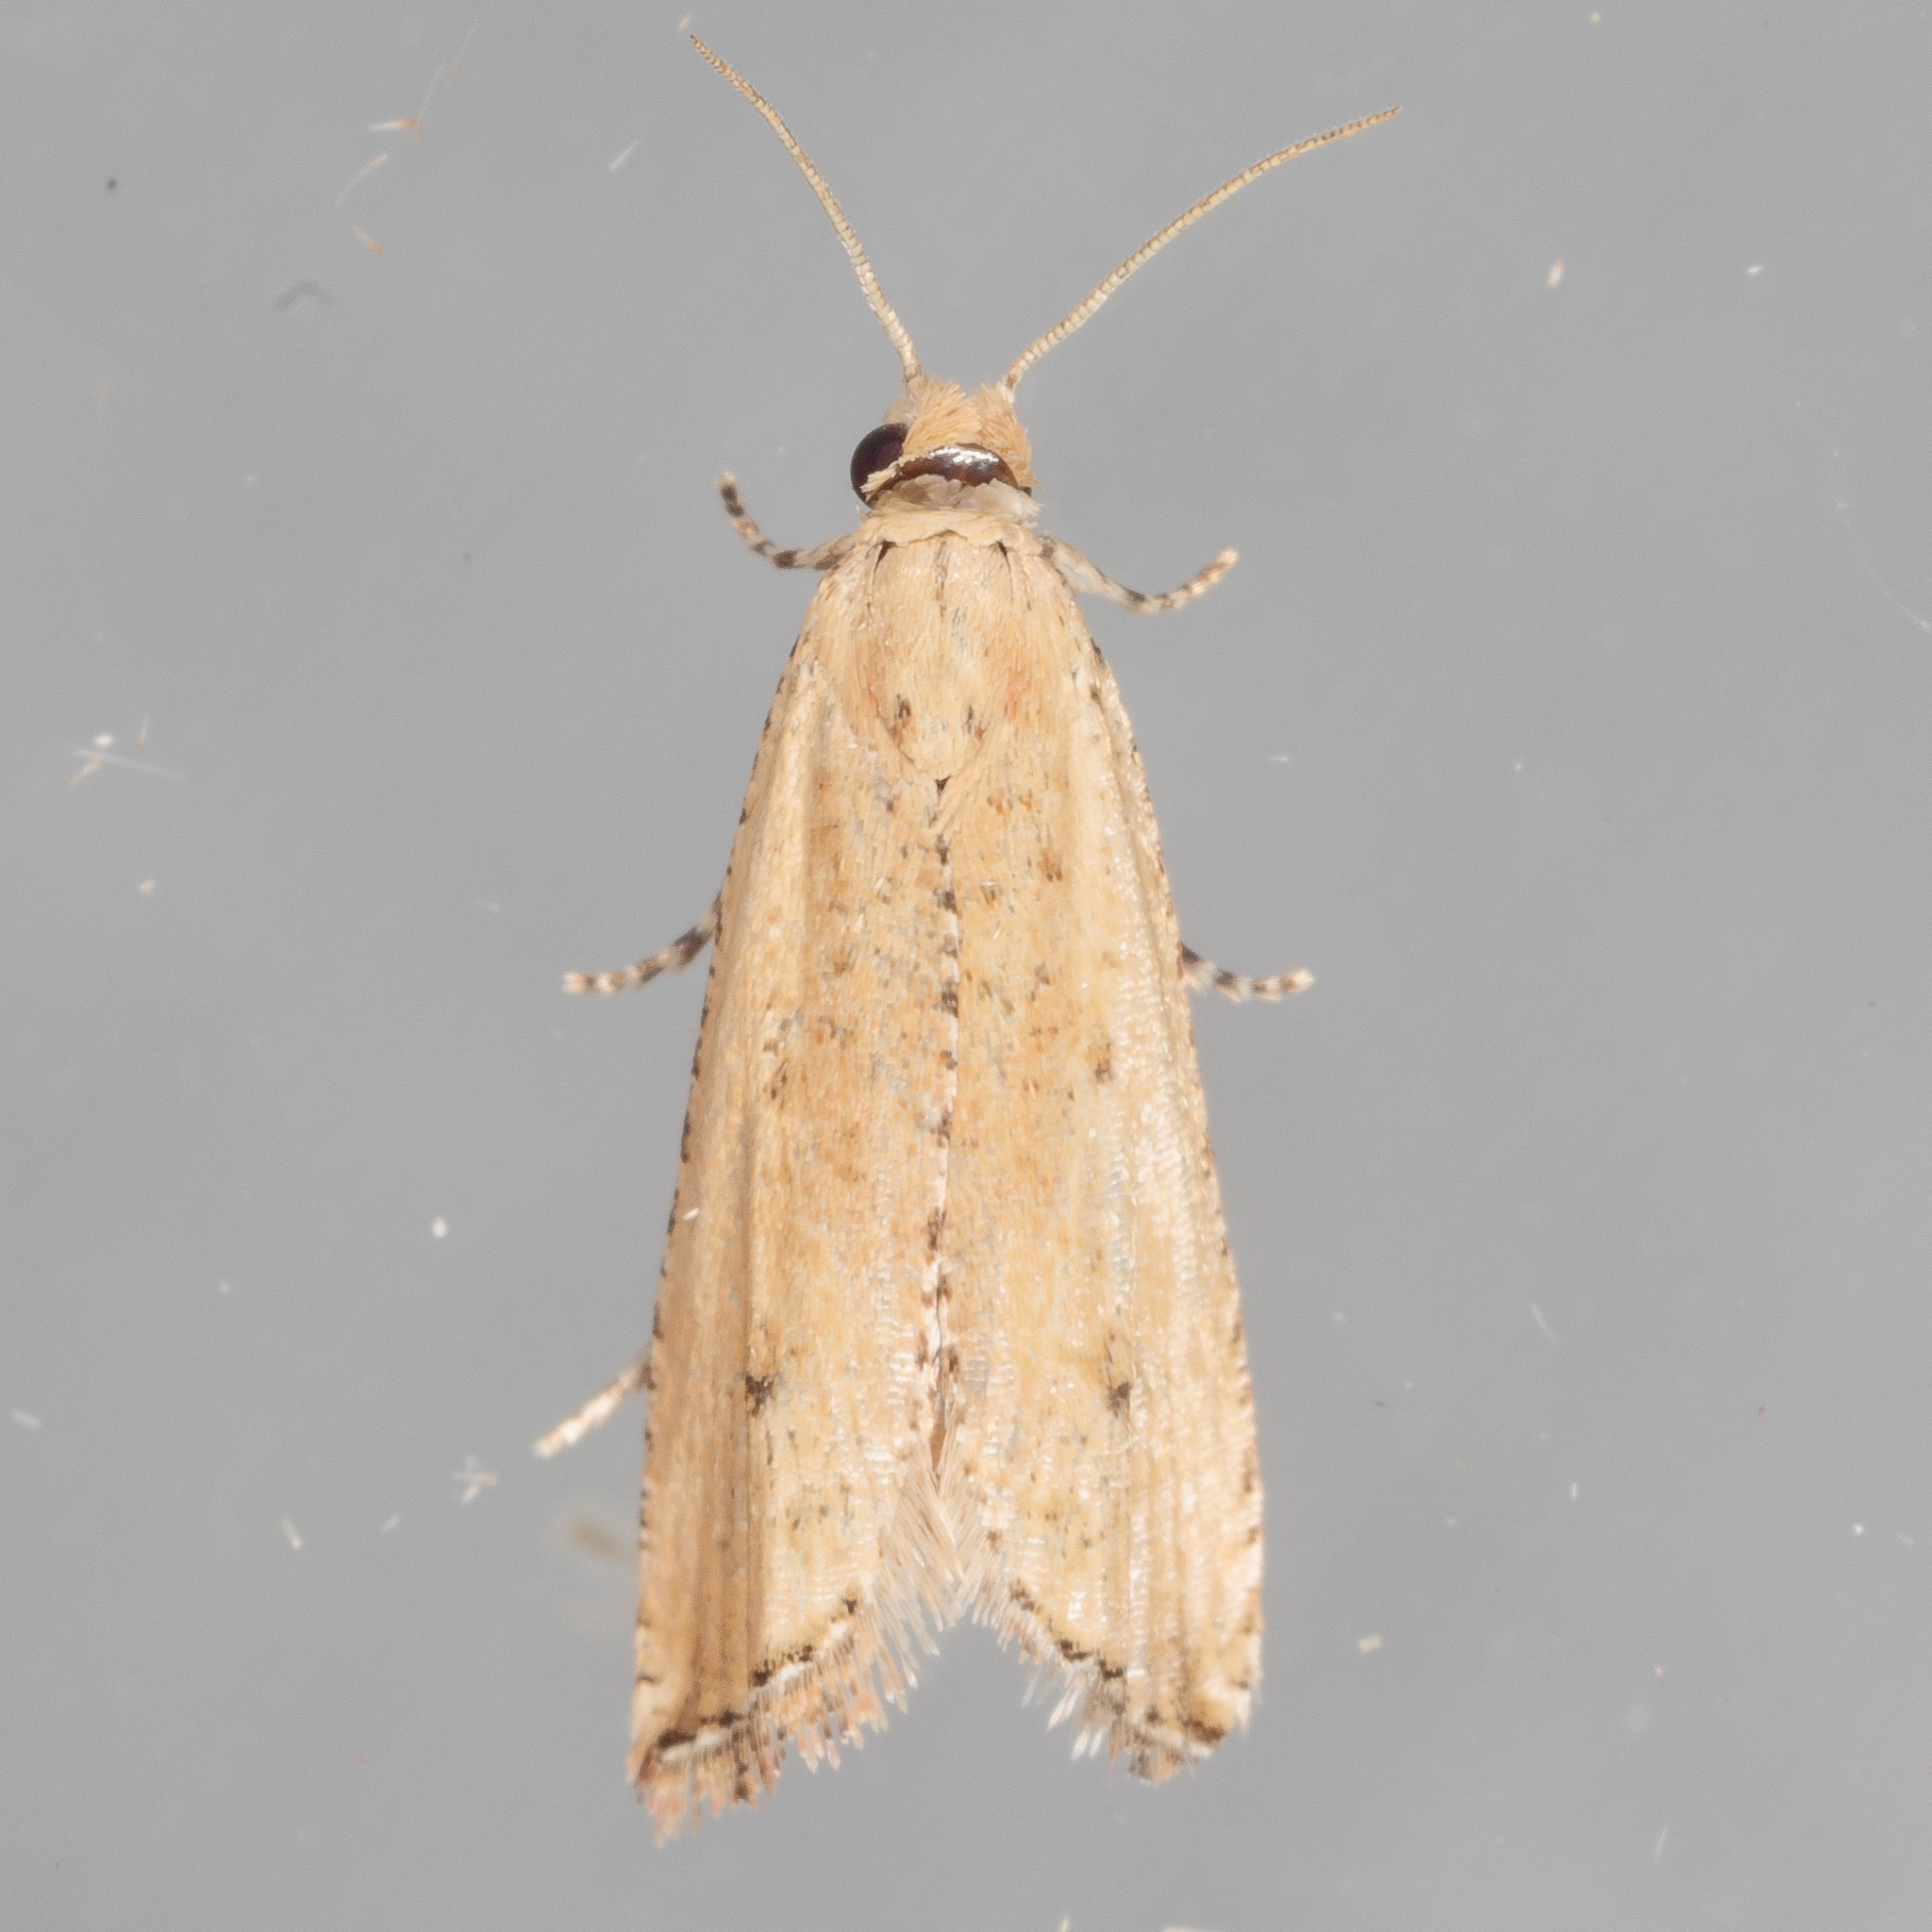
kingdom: Animalia
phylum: Arthropoda
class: Insecta
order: Lepidoptera
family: Tortricidae
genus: Bactra
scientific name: Bactra verutana
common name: Javelin moth
